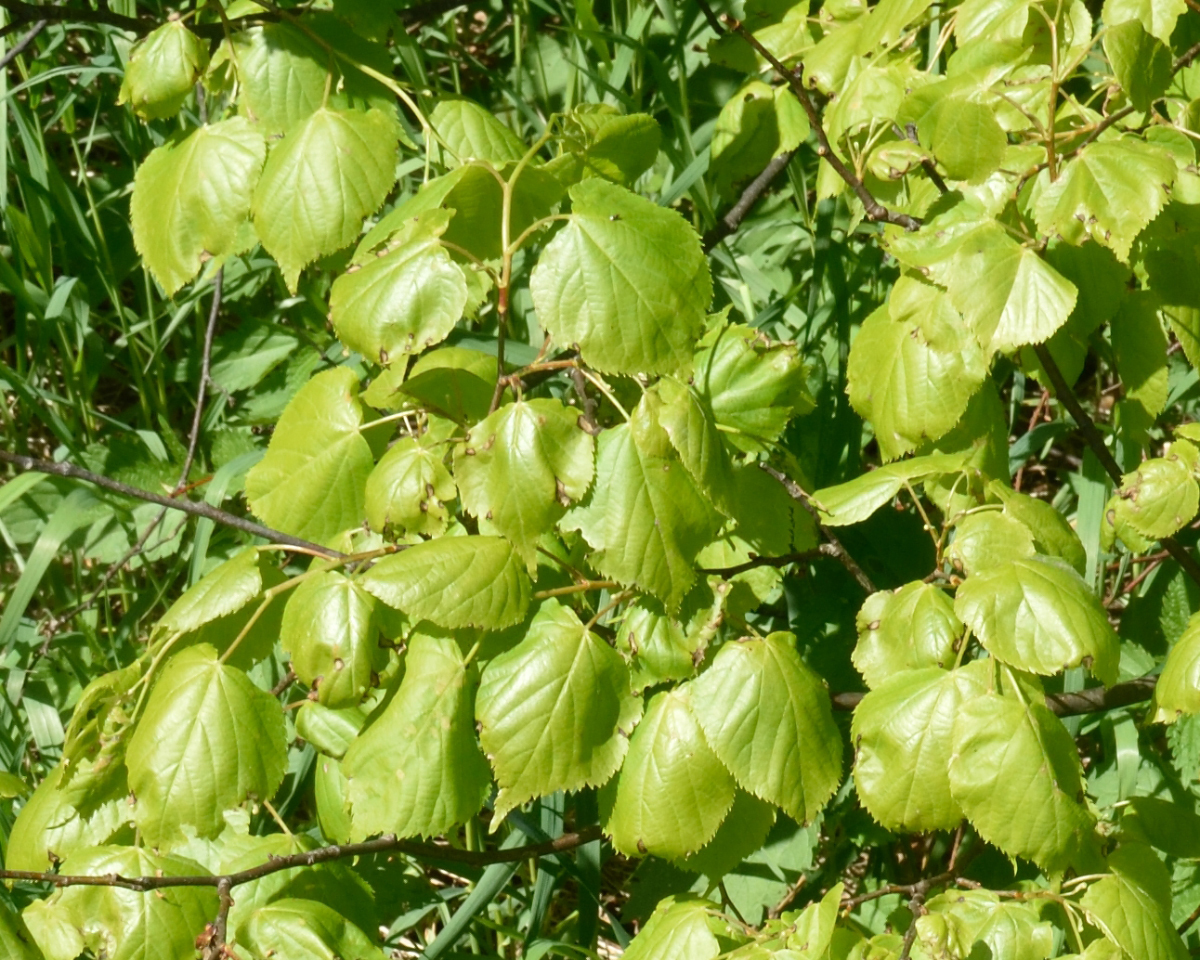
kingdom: Plantae
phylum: Tracheophyta
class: Magnoliopsida
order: Malvales
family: Malvaceae
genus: Tilia
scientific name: Tilia cordata
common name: Small-leaved lime
